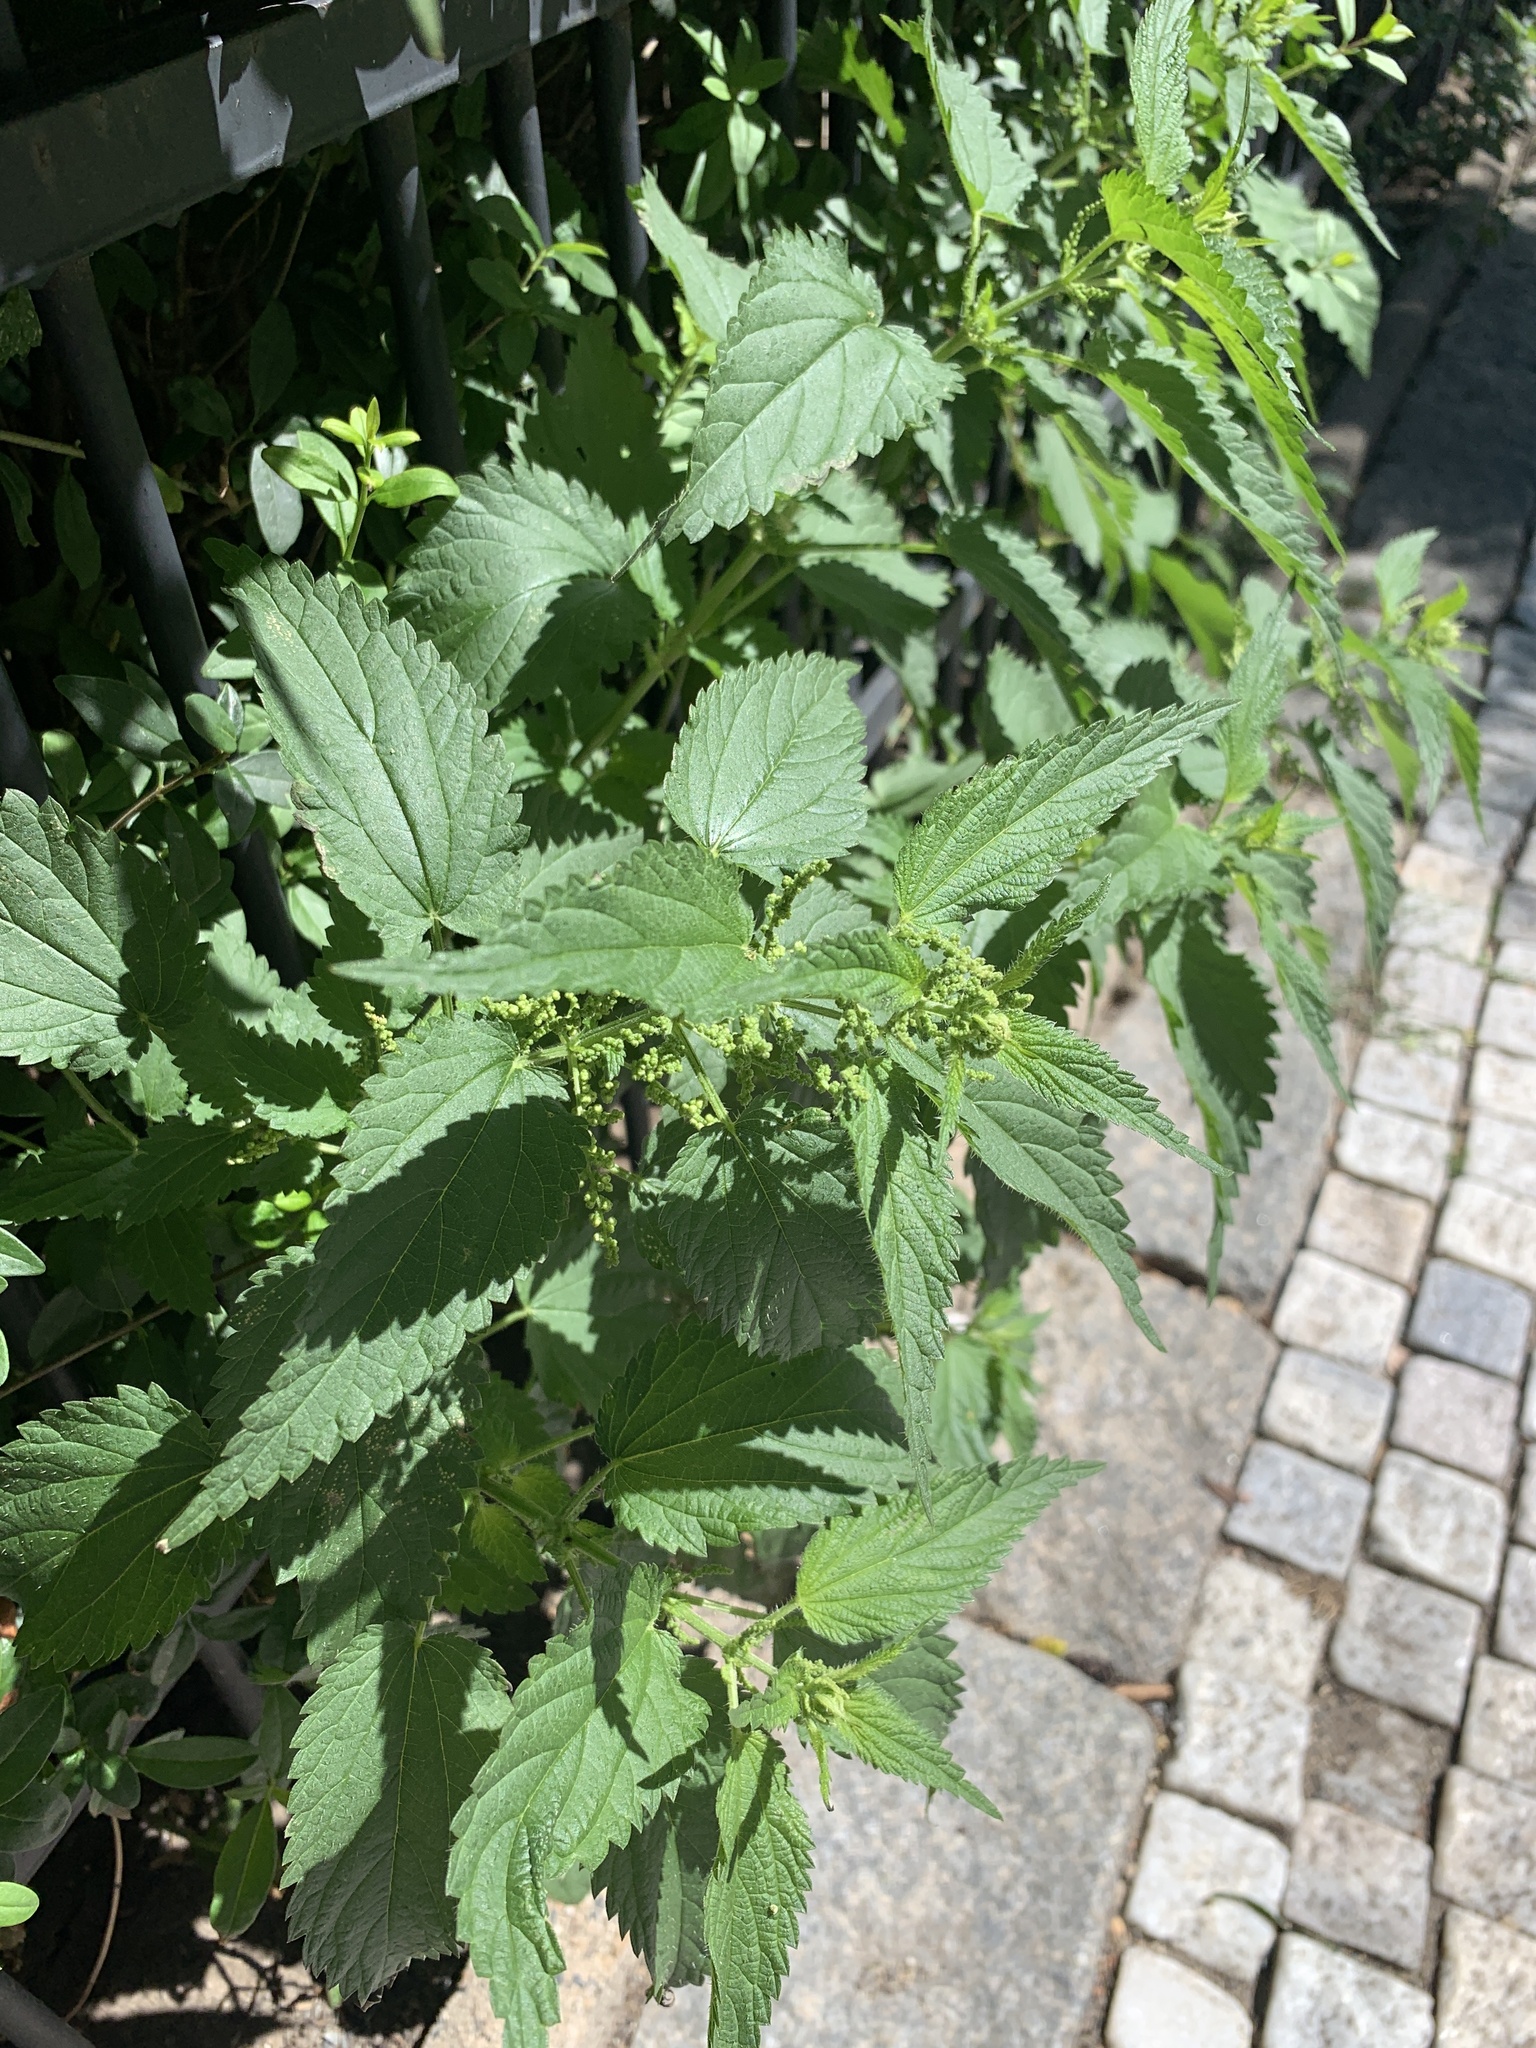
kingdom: Plantae
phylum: Tracheophyta
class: Magnoliopsida
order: Rosales
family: Urticaceae
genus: Urtica
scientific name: Urtica dioica
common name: Common nettle
